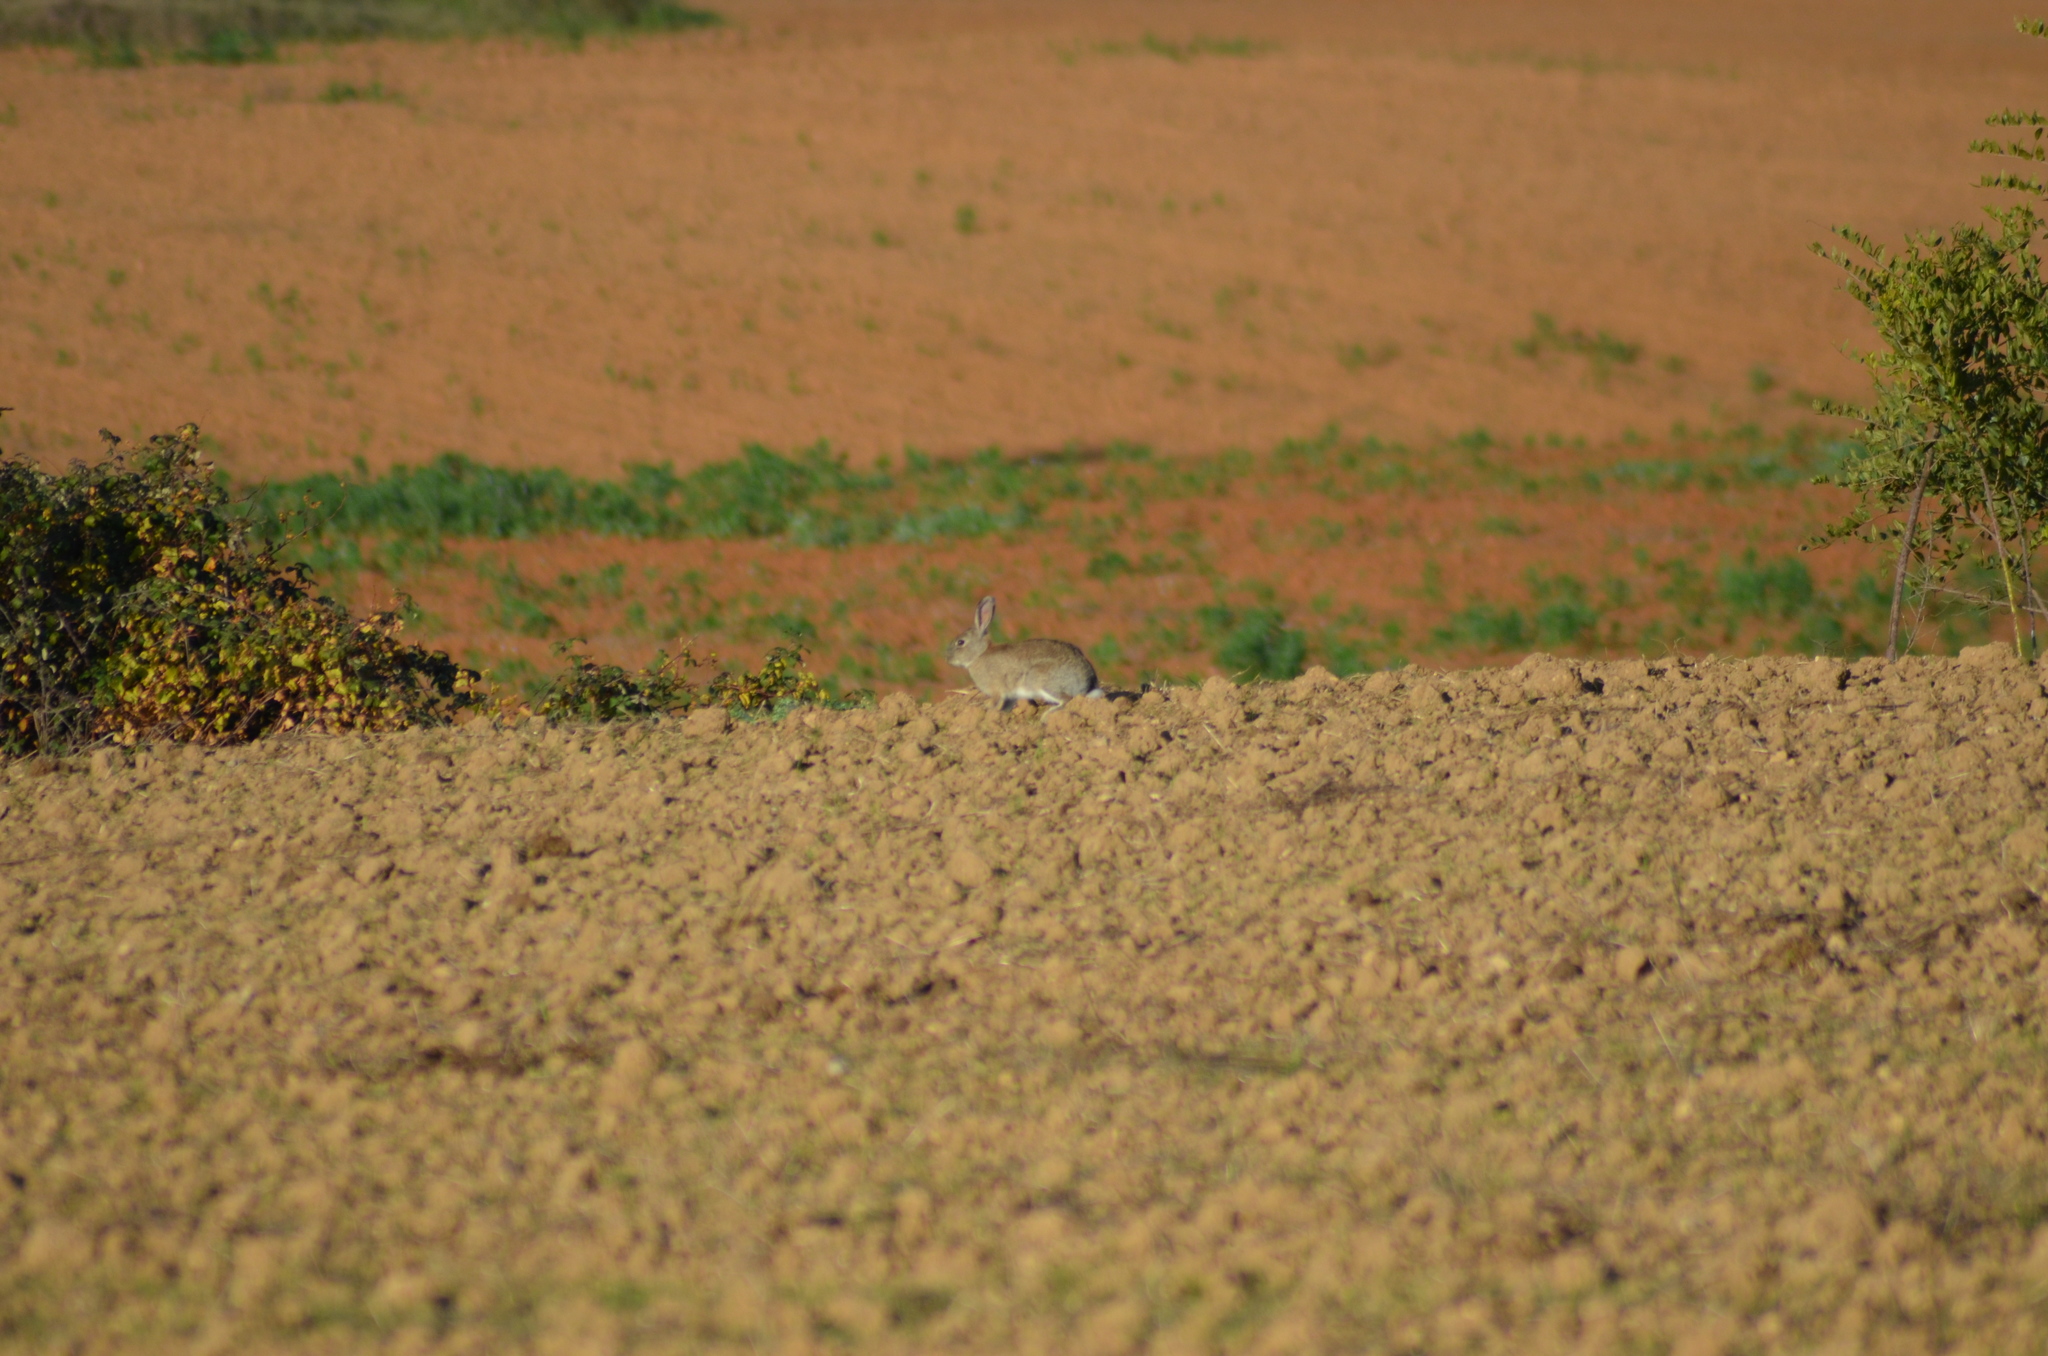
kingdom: Animalia
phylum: Chordata
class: Mammalia
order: Lagomorpha
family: Leporidae
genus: Oryctolagus
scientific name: Oryctolagus cuniculus
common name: European rabbit
